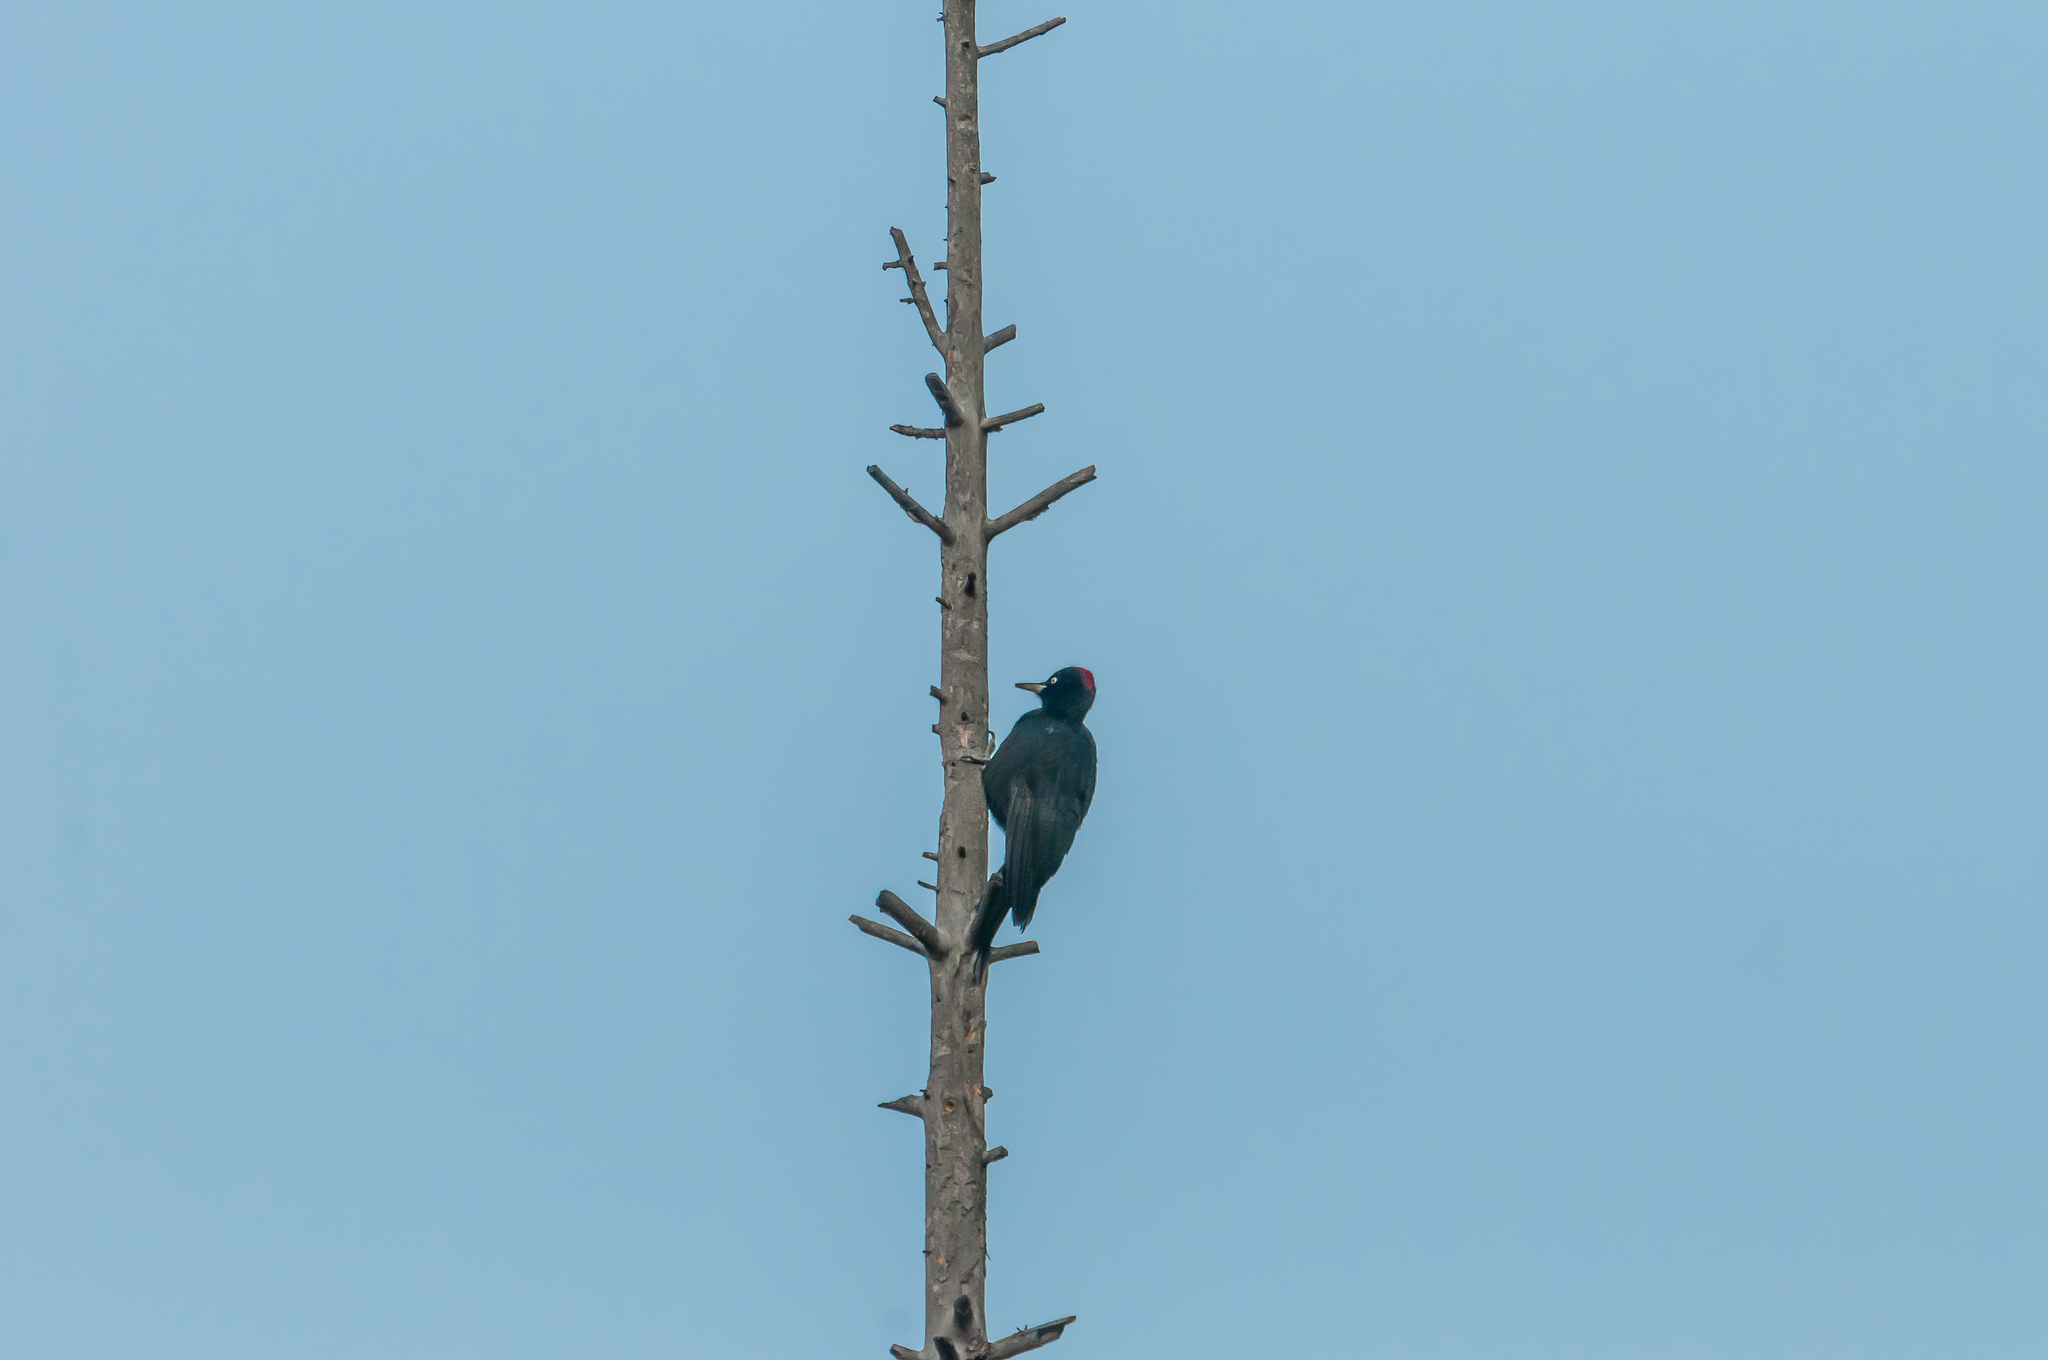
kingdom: Animalia
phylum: Chordata
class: Aves
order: Piciformes
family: Picidae
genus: Dryocopus
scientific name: Dryocopus martius
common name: Black woodpecker
